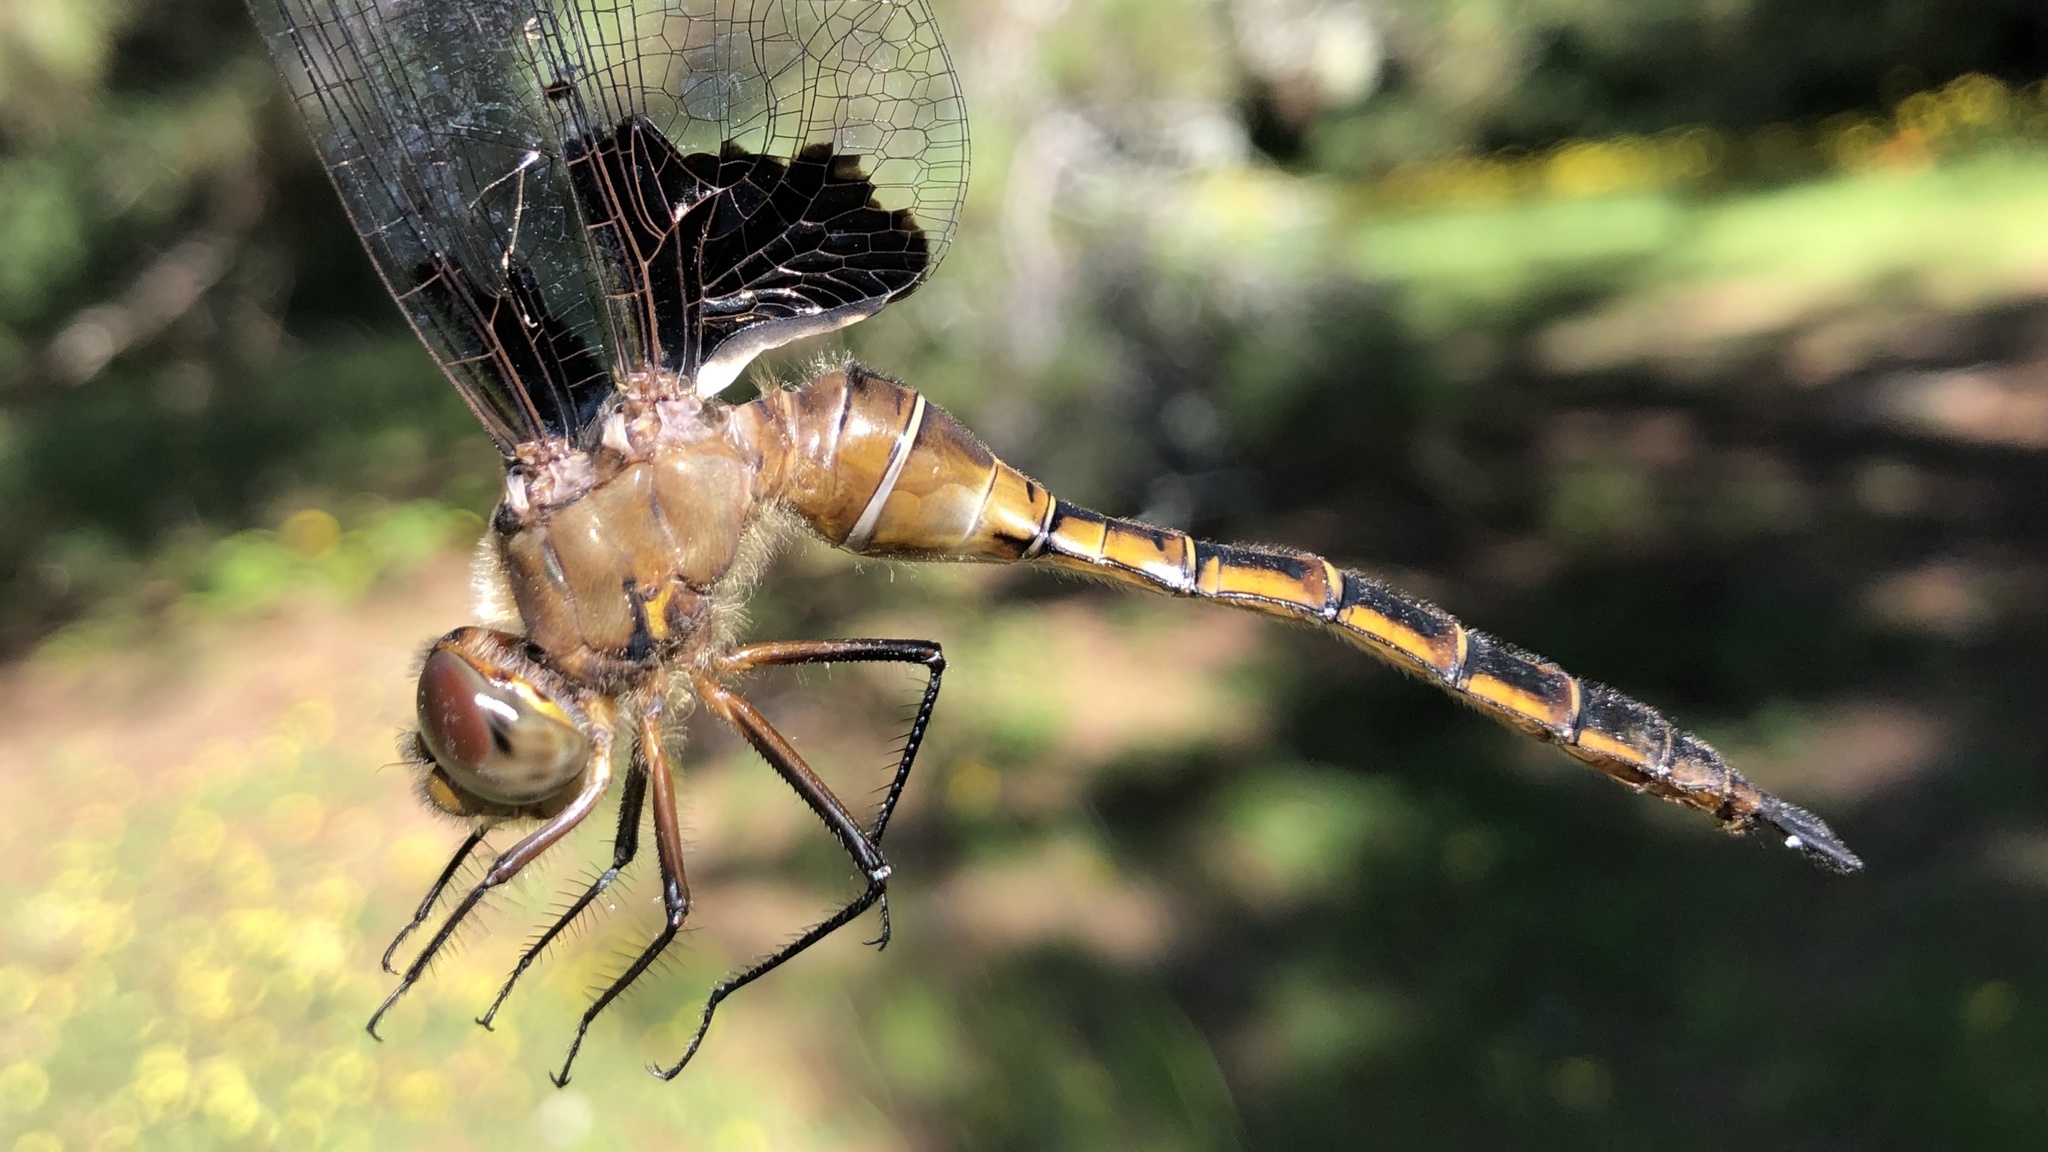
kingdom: Animalia
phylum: Arthropoda
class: Insecta
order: Odonata
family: Corduliidae
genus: Epitheca
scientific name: Epitheca princeps
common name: Prince baskettail
